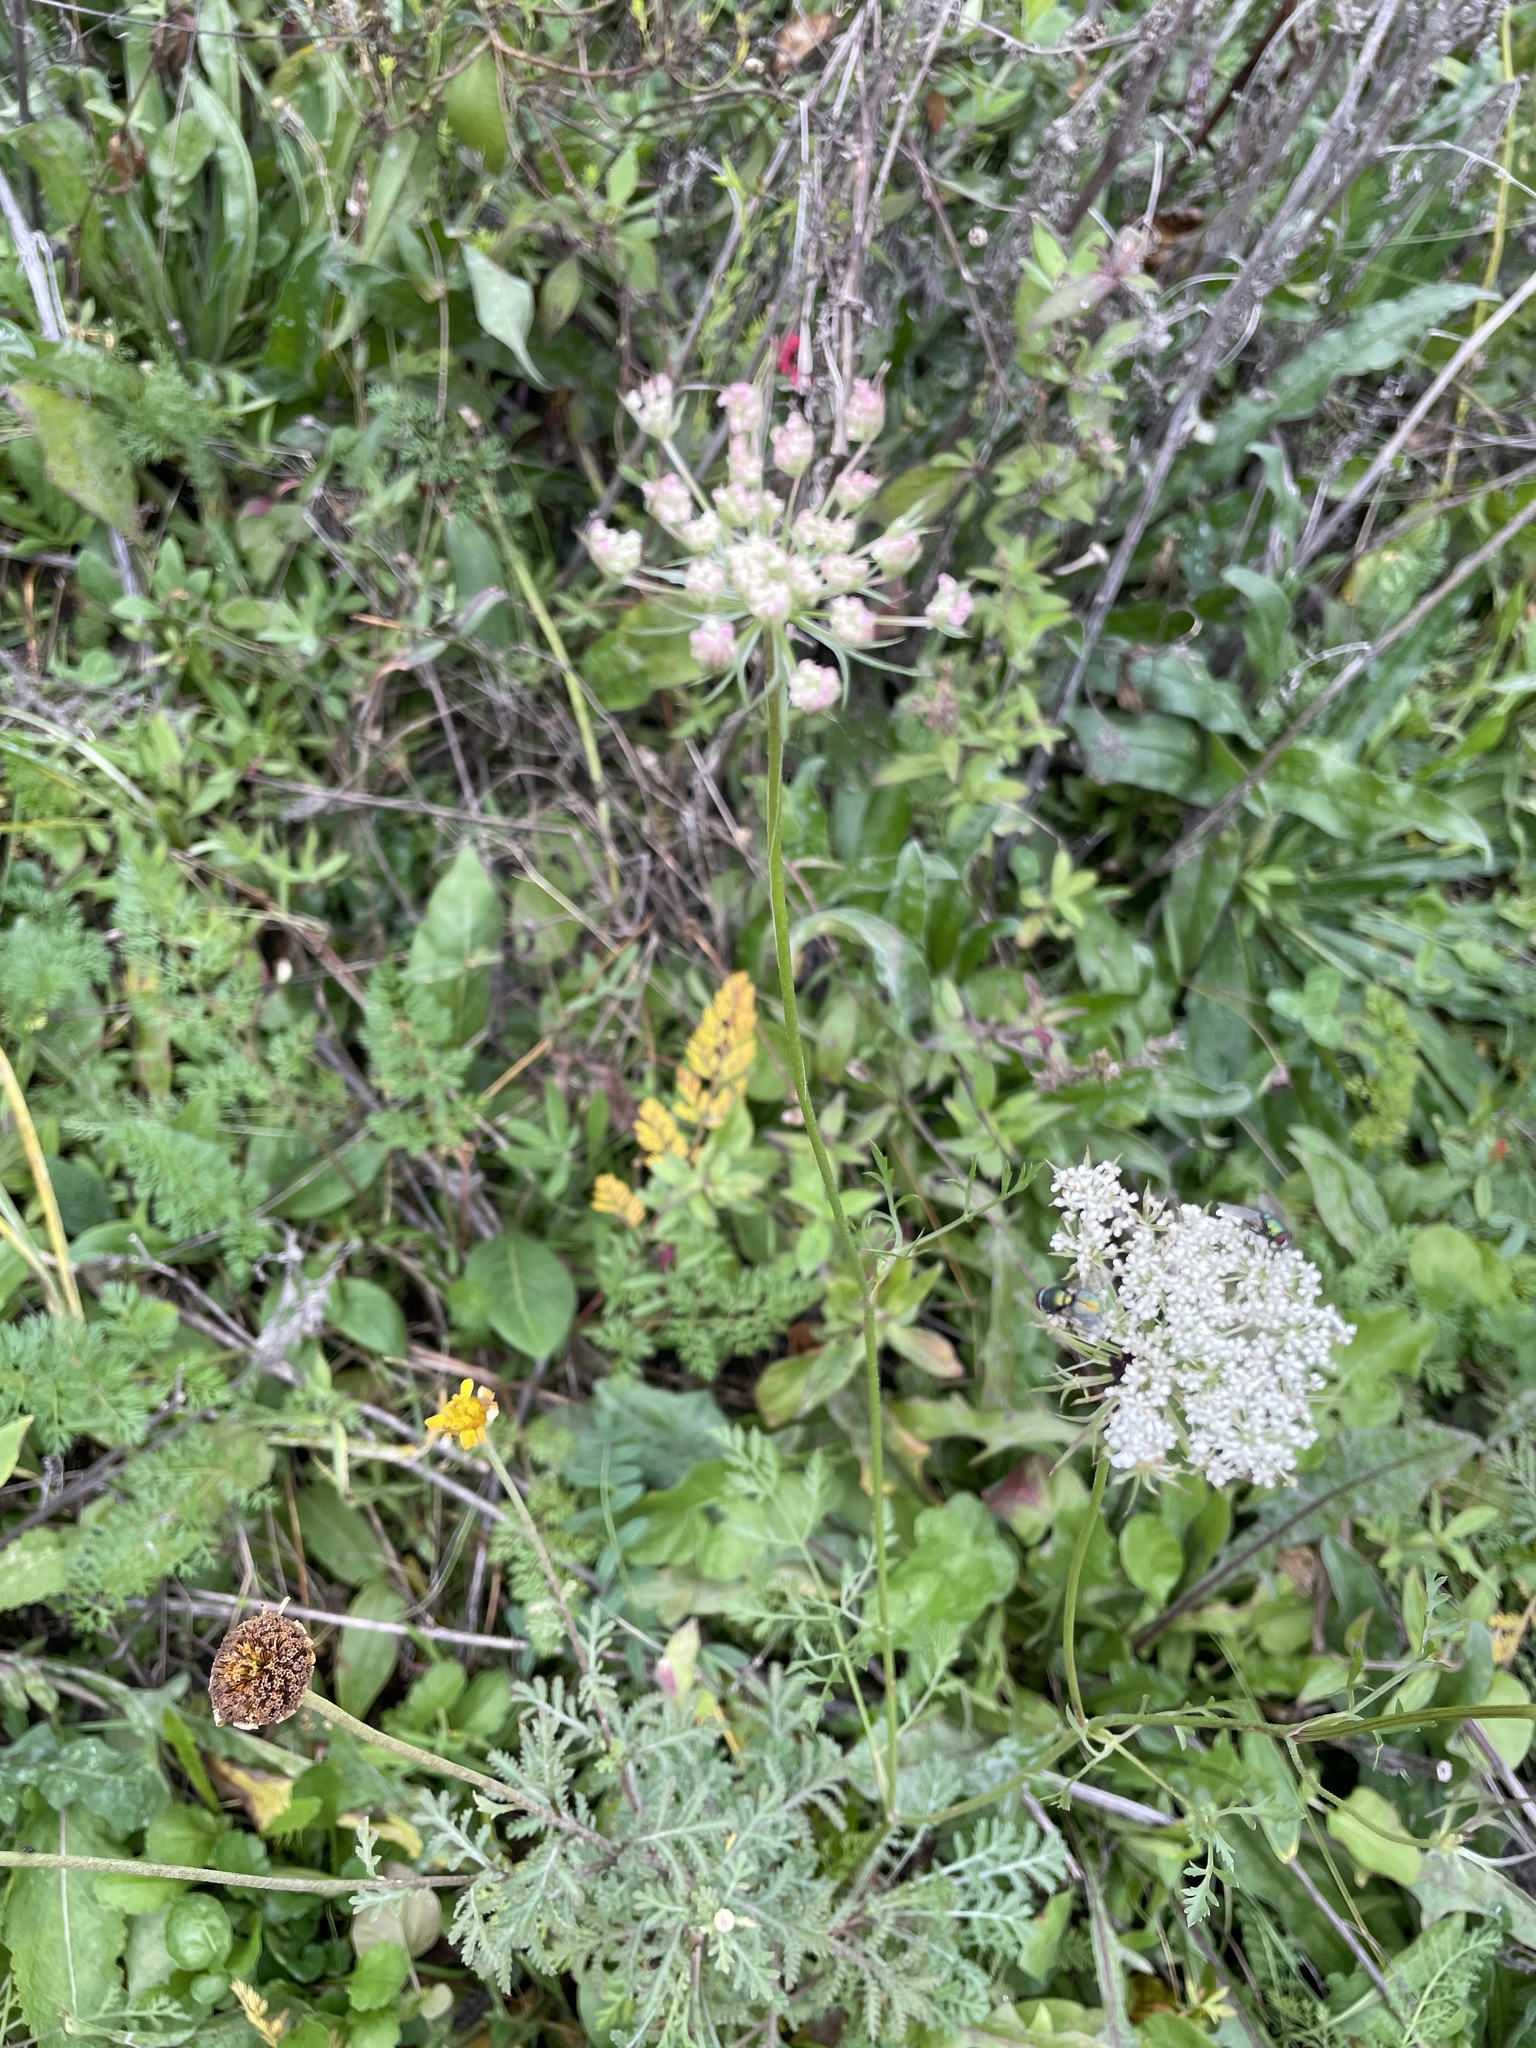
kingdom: Plantae
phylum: Tracheophyta
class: Magnoliopsida
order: Apiales
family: Apiaceae
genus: Daucus
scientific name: Daucus carota
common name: Wild carrot
